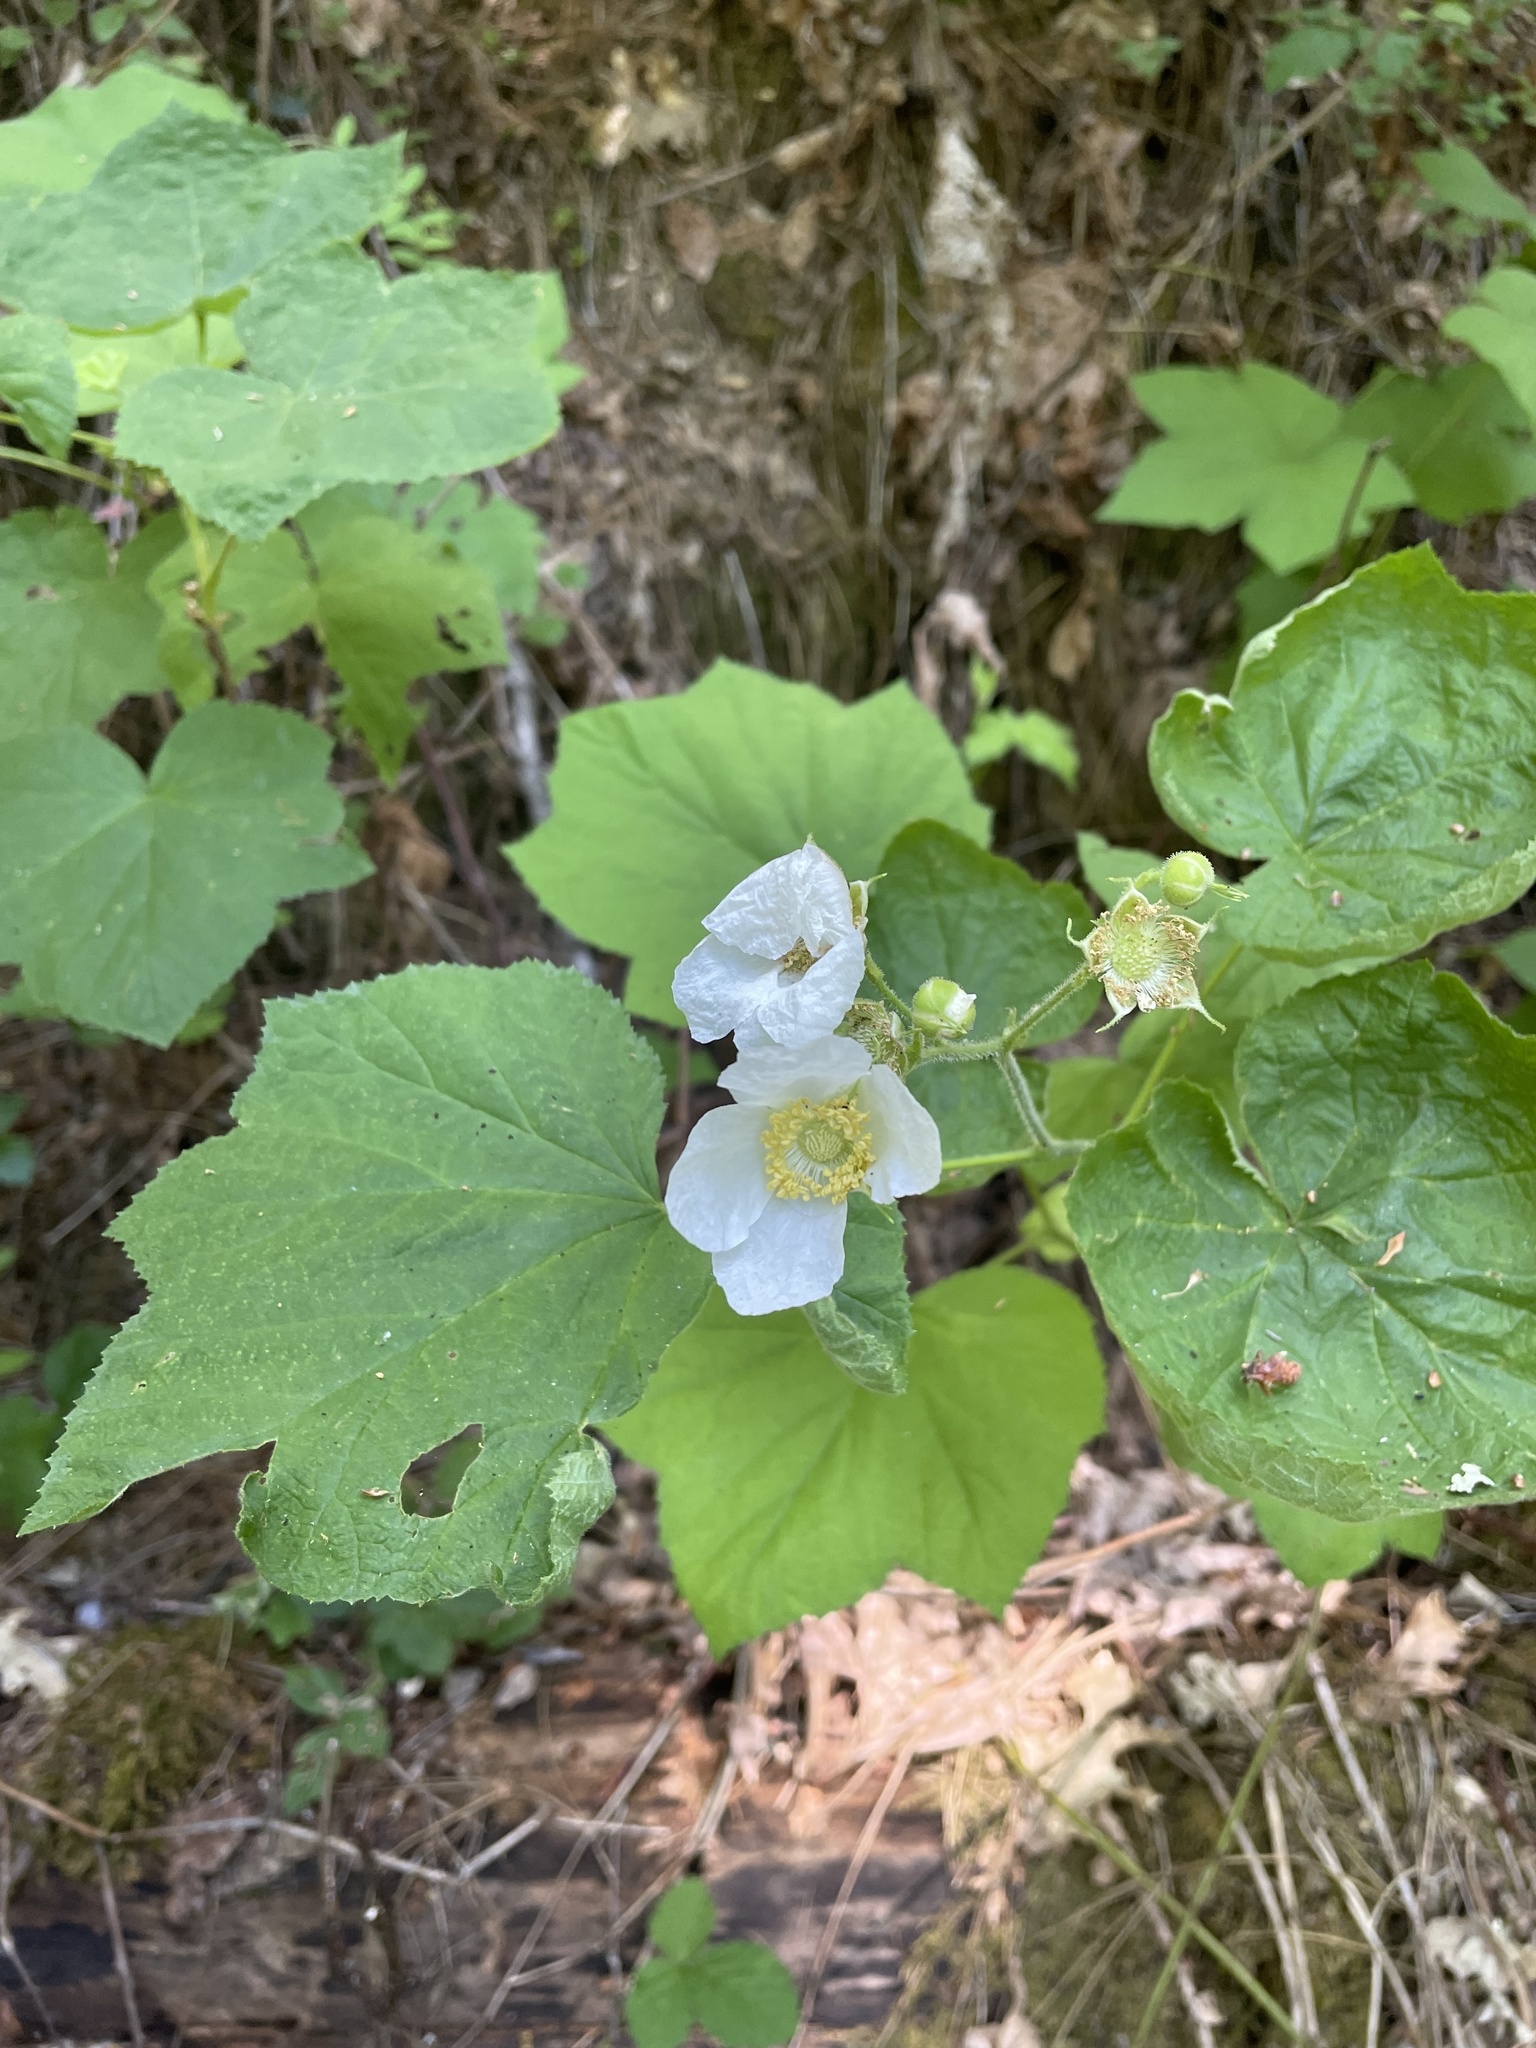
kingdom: Plantae
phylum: Tracheophyta
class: Magnoliopsida
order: Rosales
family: Rosaceae
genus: Rubus
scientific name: Rubus parviflorus
